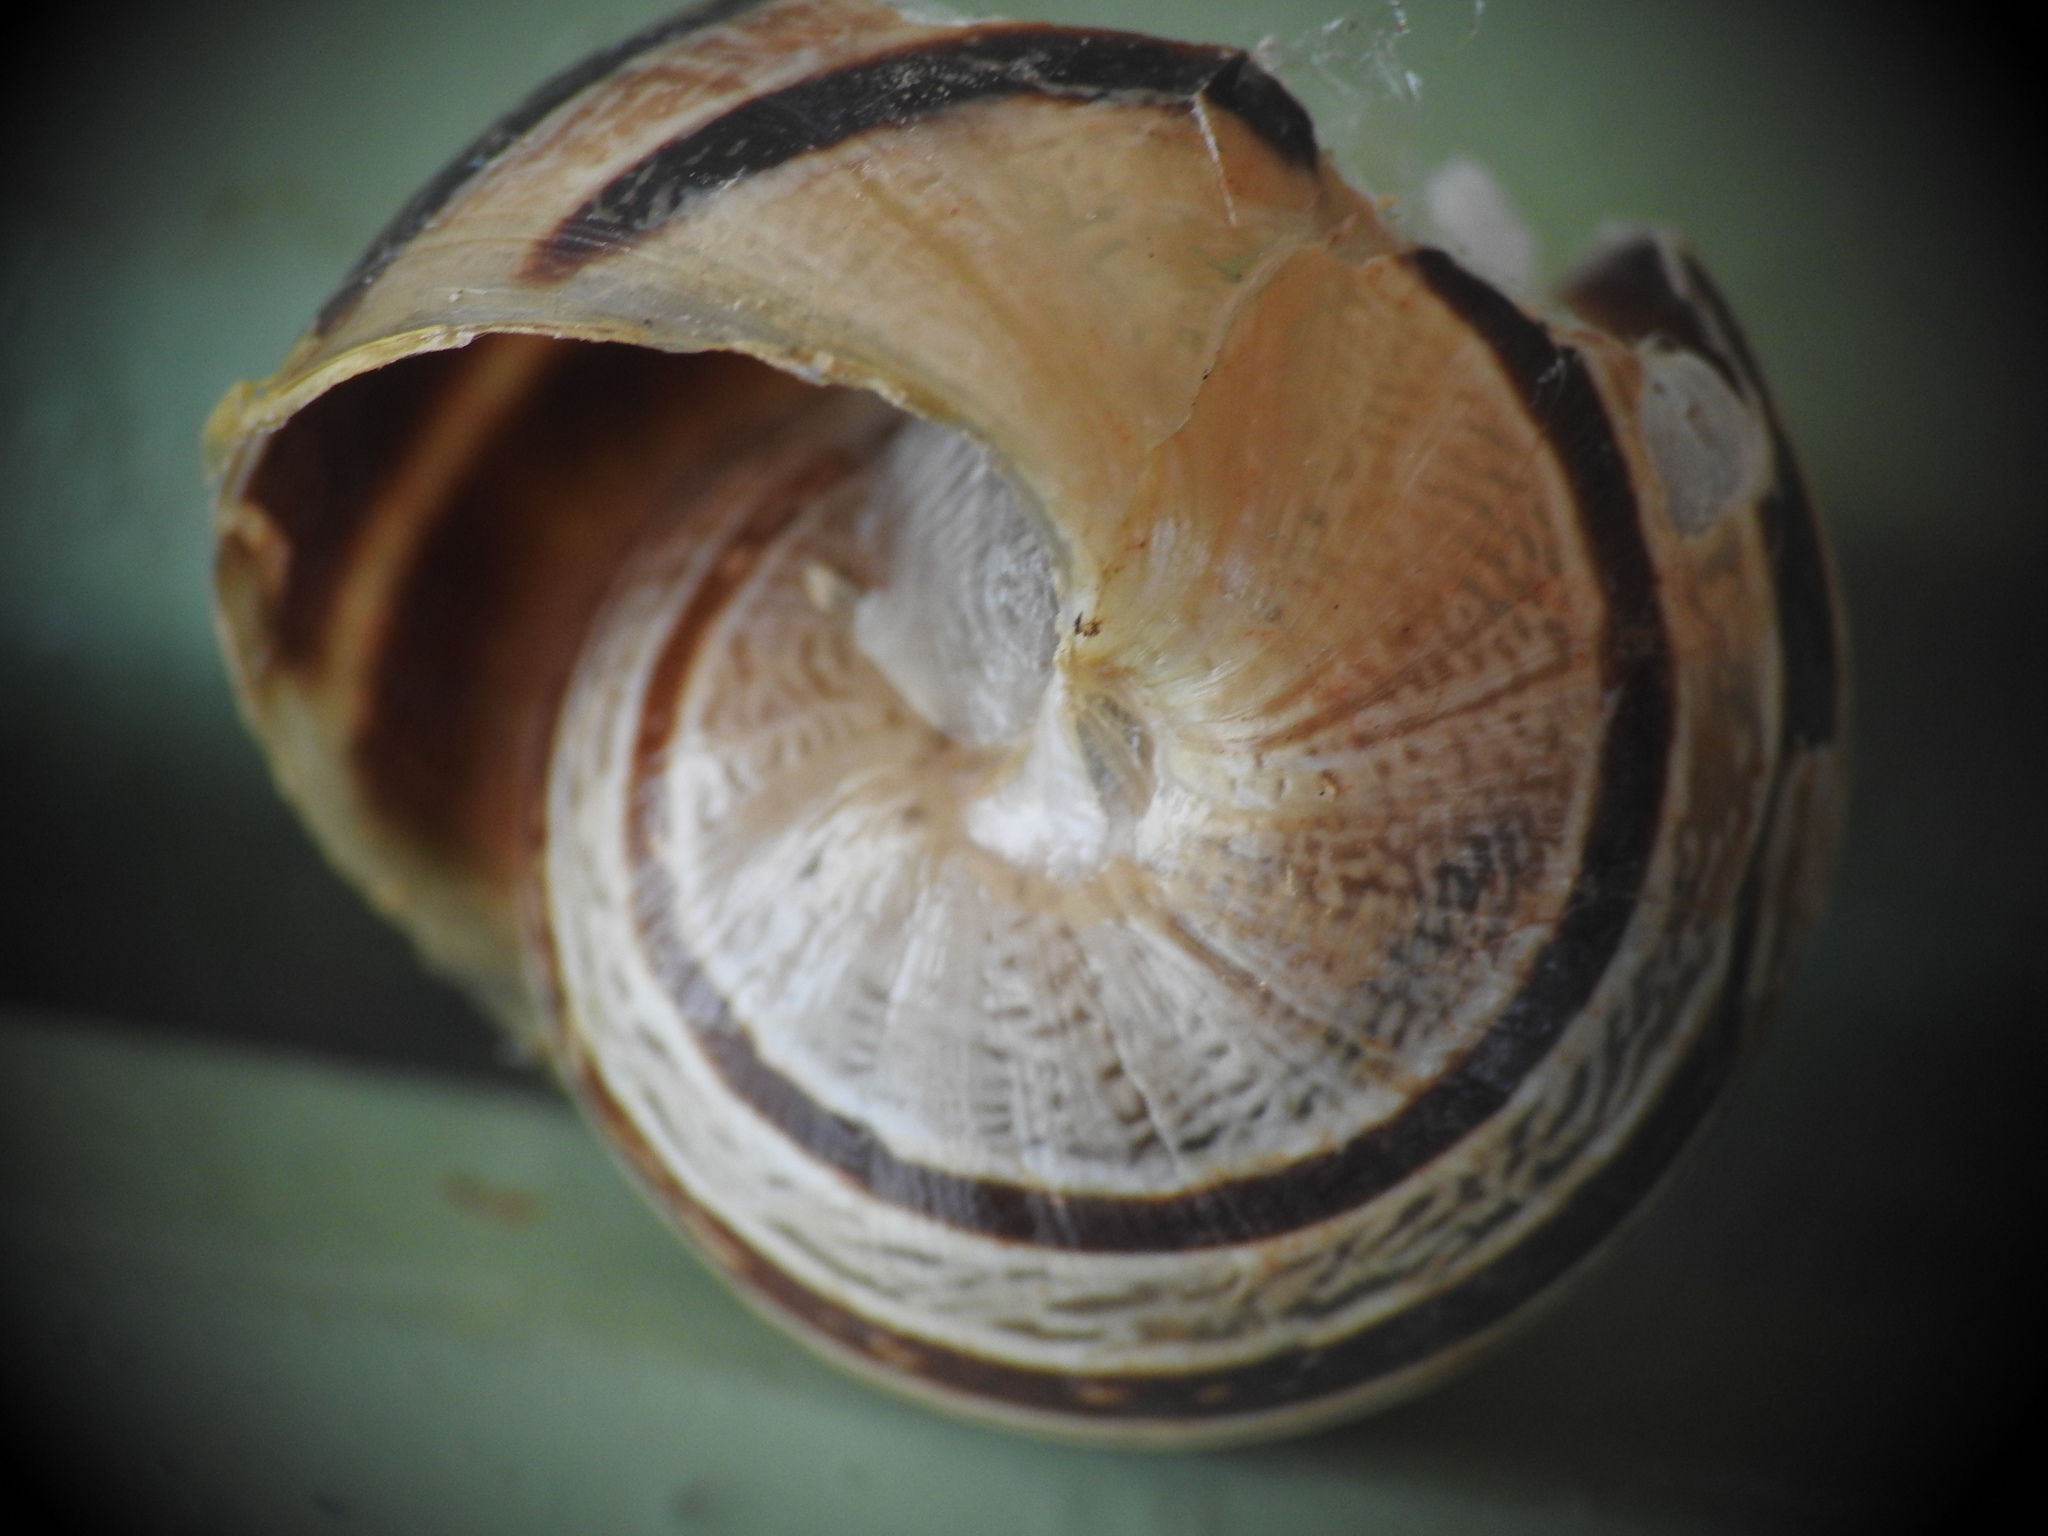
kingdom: Animalia
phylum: Mollusca
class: Gastropoda
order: Stylommatophora
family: Helicidae
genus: Eobania
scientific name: Eobania vermiculata
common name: Chocolateband snail
